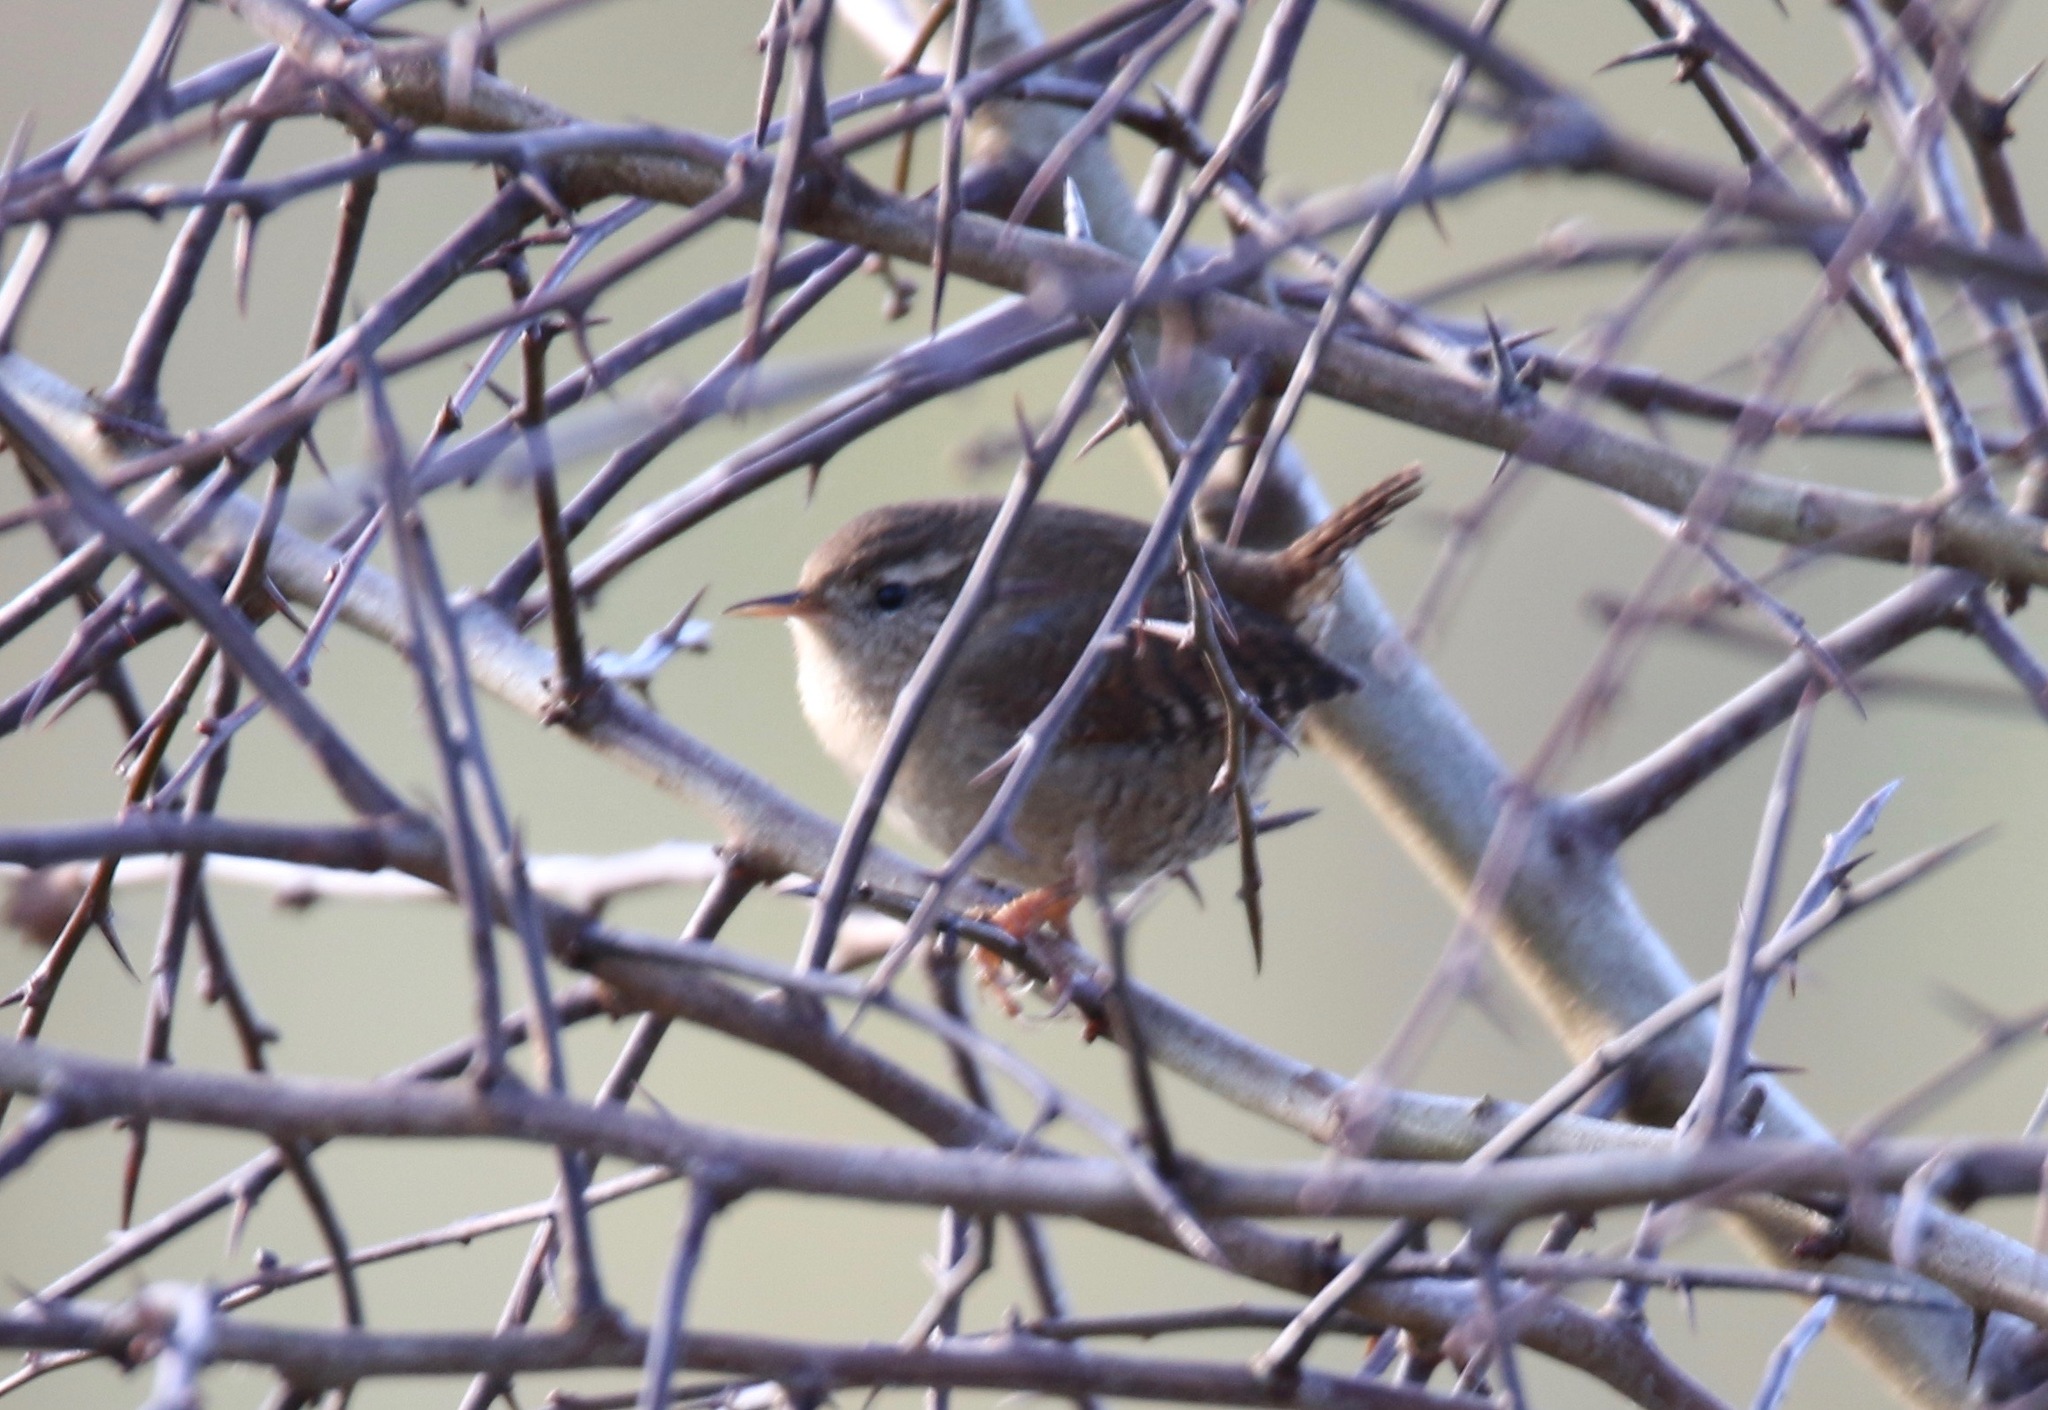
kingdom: Animalia
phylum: Chordata
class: Aves
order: Passeriformes
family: Troglodytidae
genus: Troglodytes
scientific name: Troglodytes troglodytes
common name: Eurasian wren
